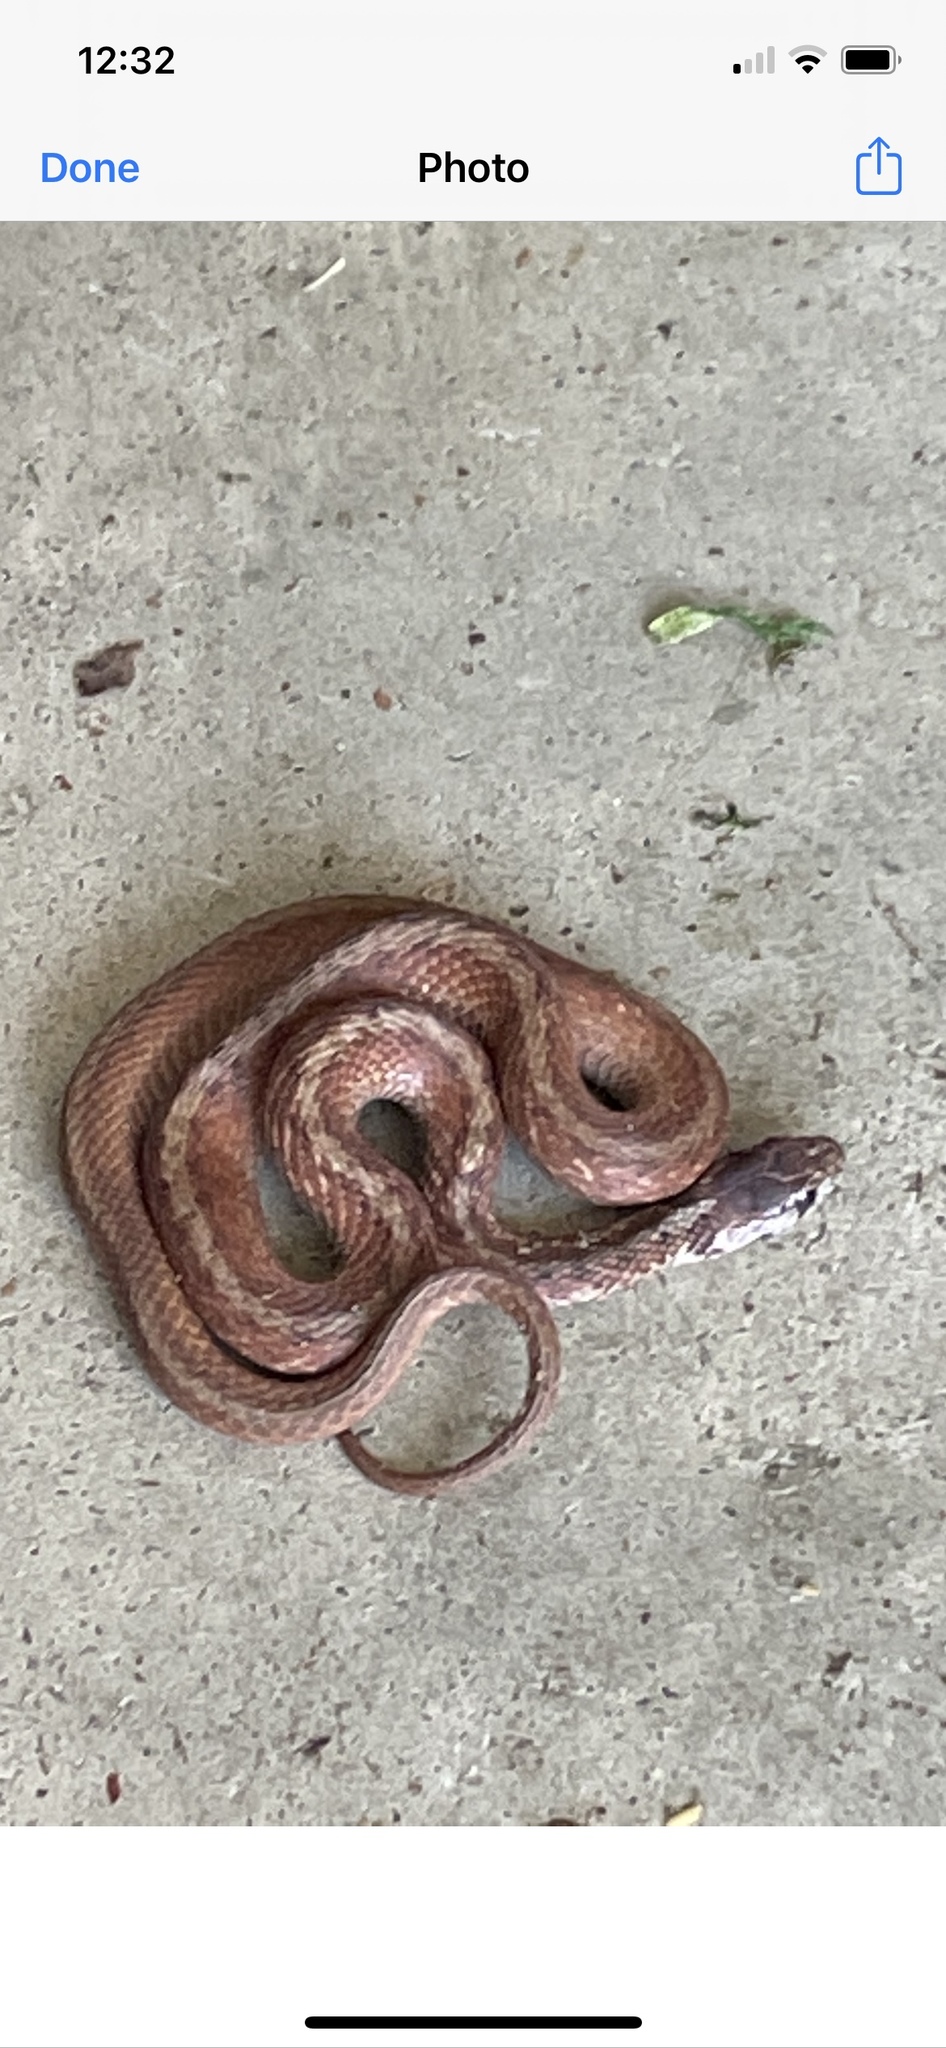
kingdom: Animalia
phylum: Chordata
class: Squamata
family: Colubridae
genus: Storeria
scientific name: Storeria dekayi
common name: (dekay’s) brown snake
